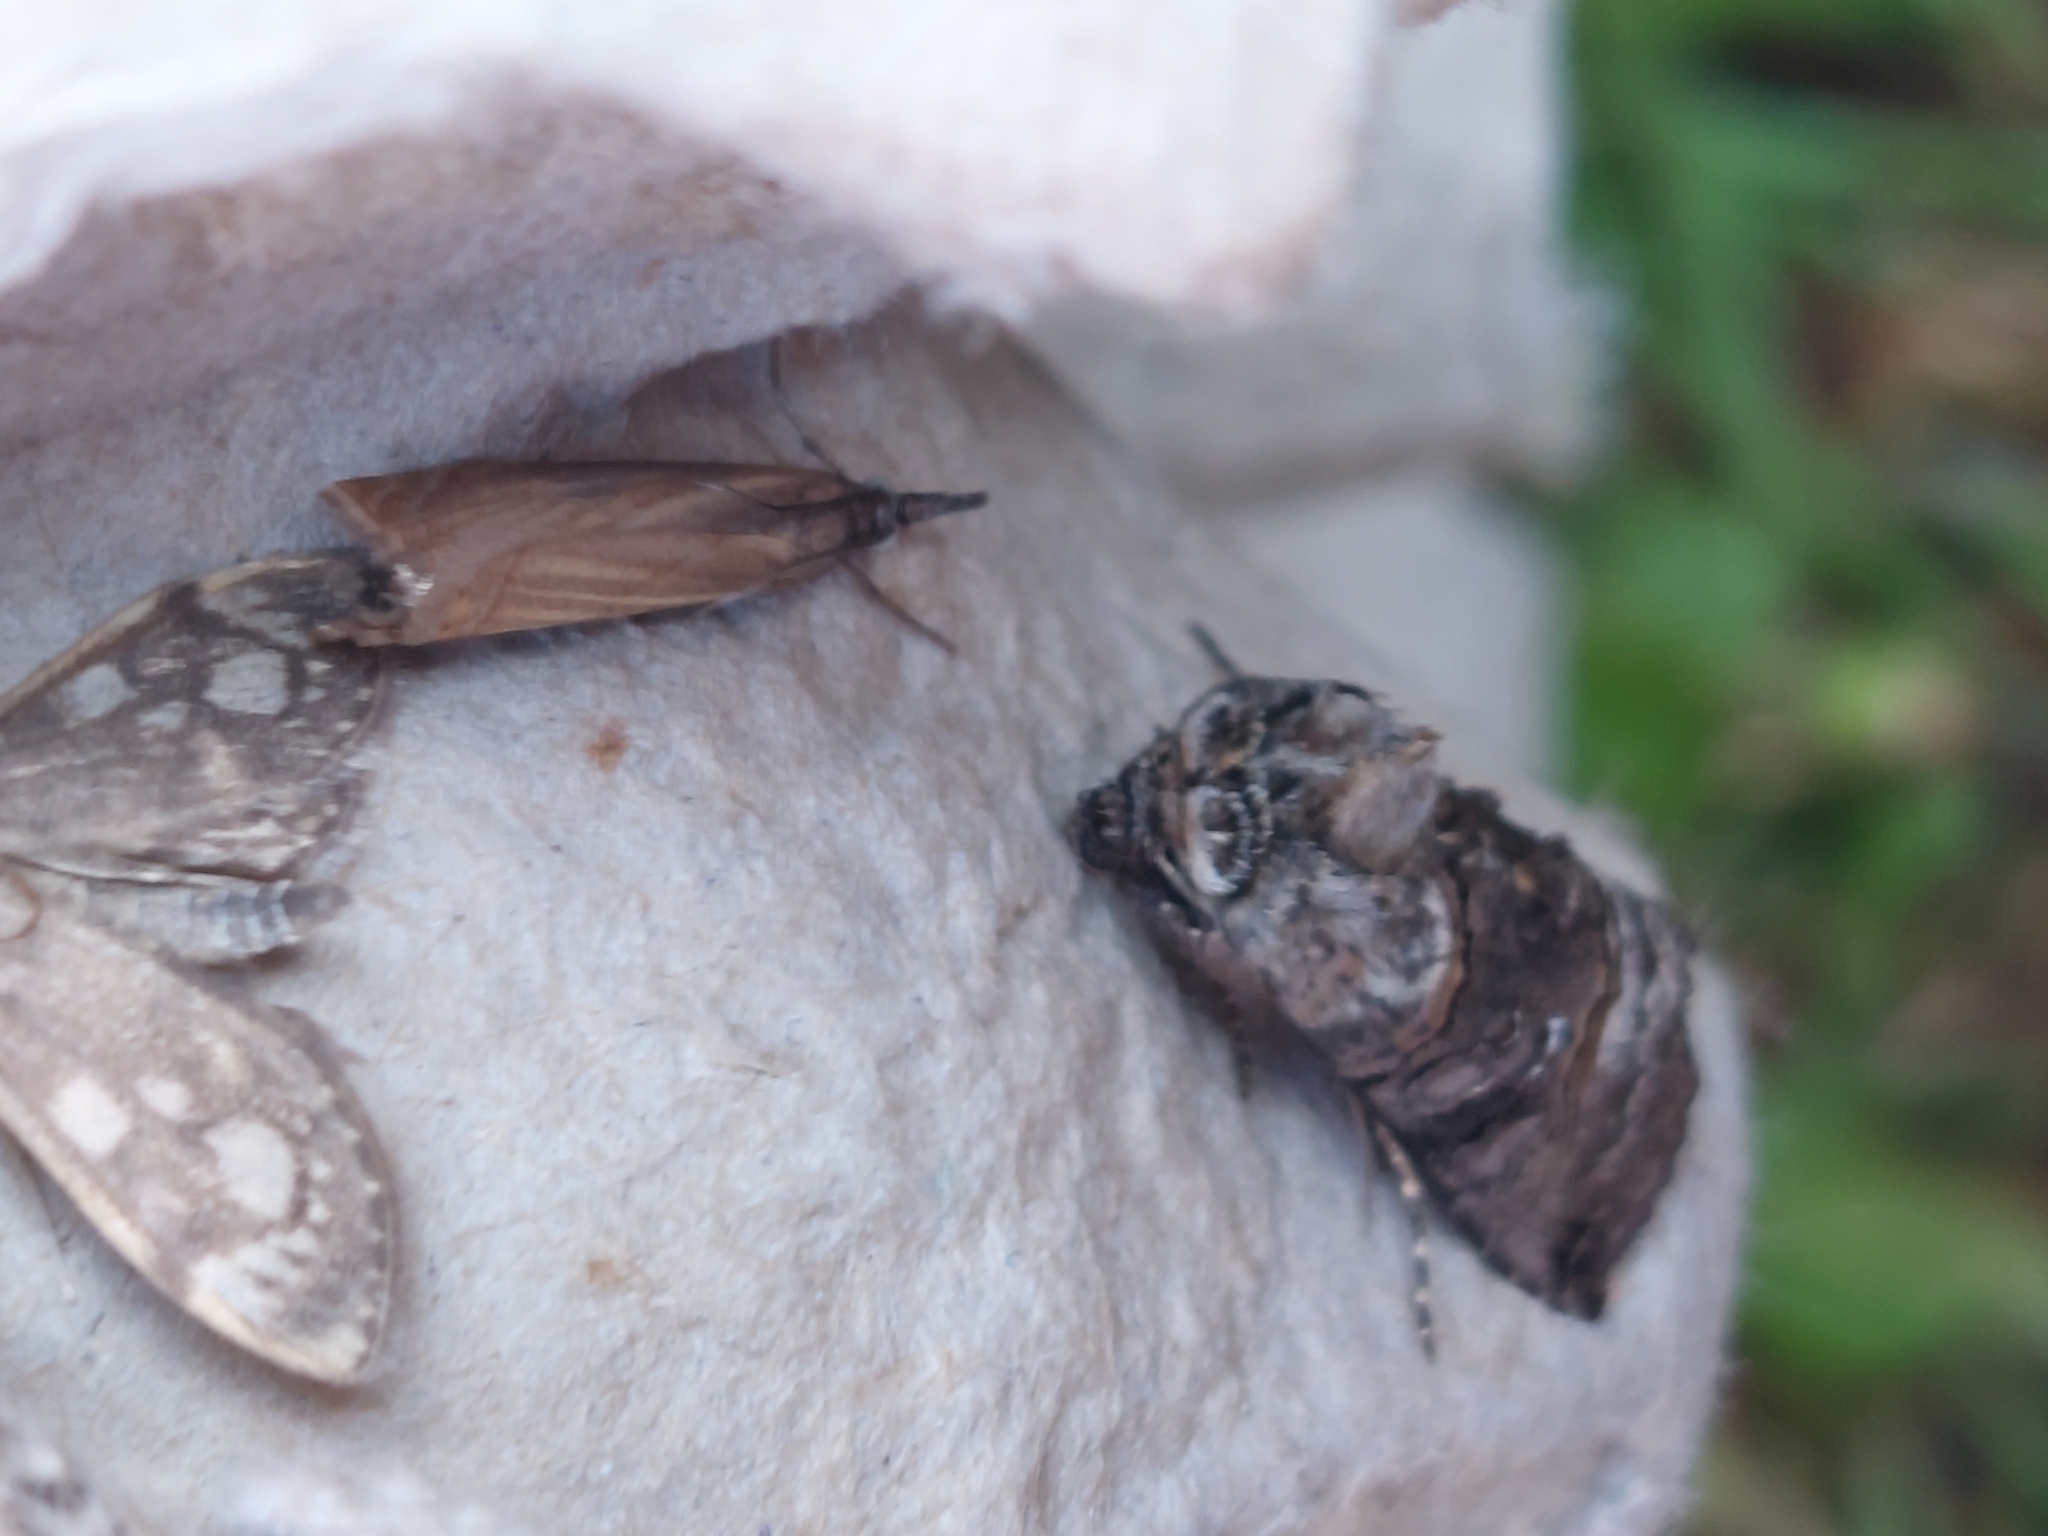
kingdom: Animalia
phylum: Arthropoda
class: Insecta
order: Lepidoptera
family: Noctuidae
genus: Abrostola
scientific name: Abrostola tripartita
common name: Spectacle
